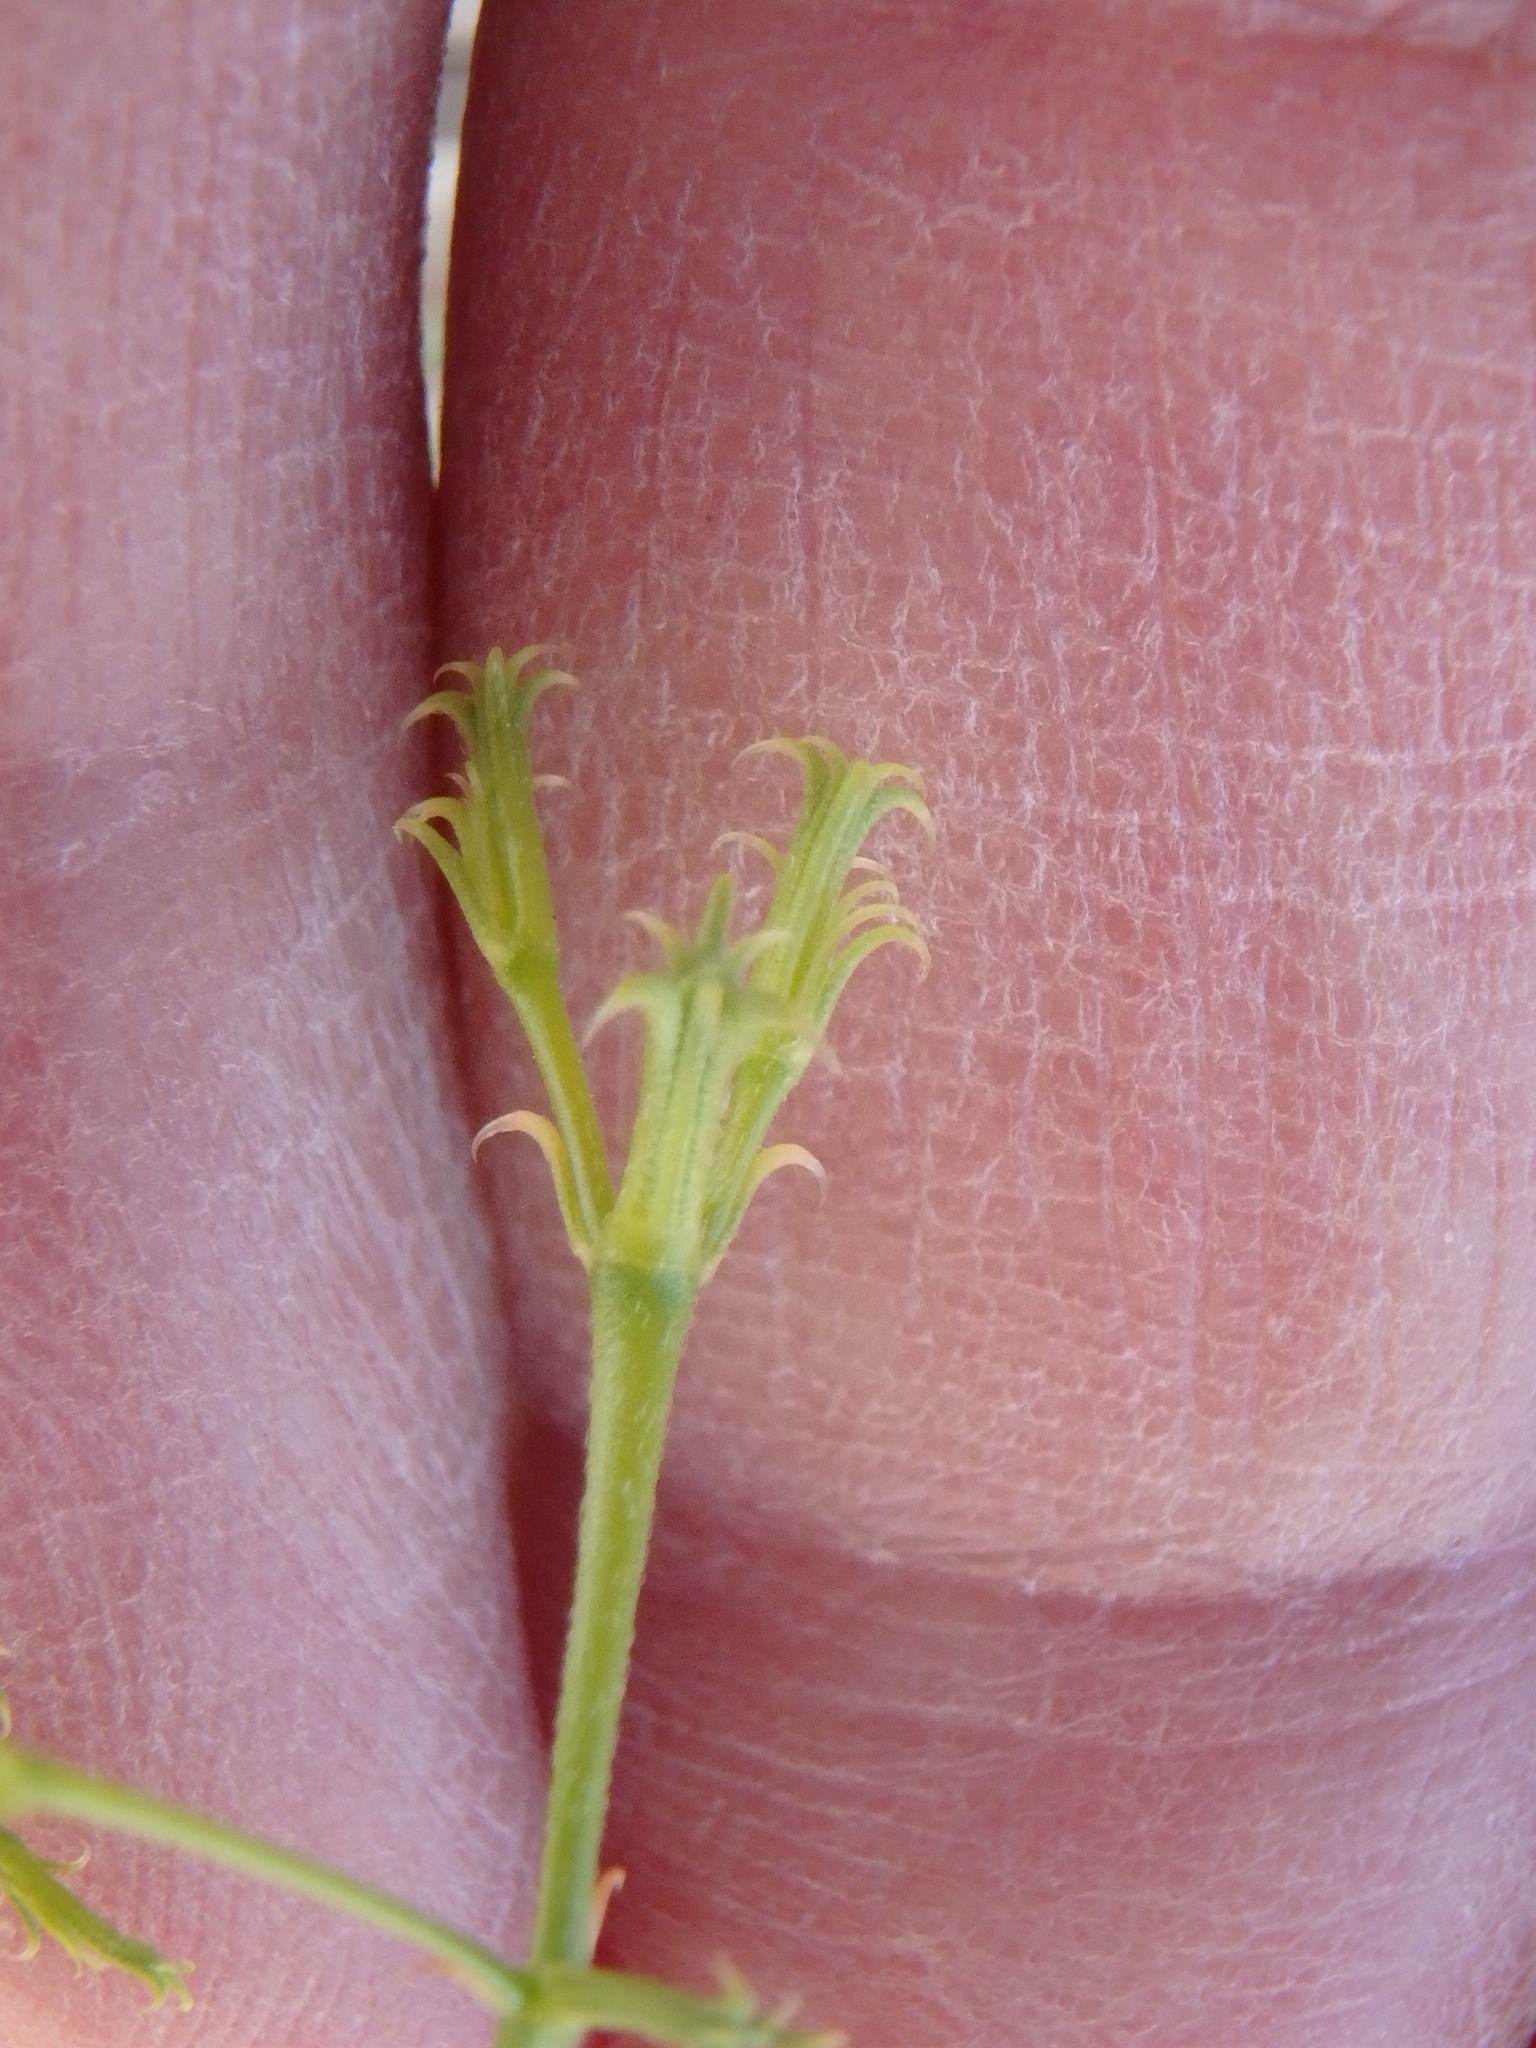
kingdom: Plantae
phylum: Tracheophyta
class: Magnoliopsida
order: Caryophyllales
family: Polygonaceae
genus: Chorizanthe
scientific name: Chorizanthe brevicornu
